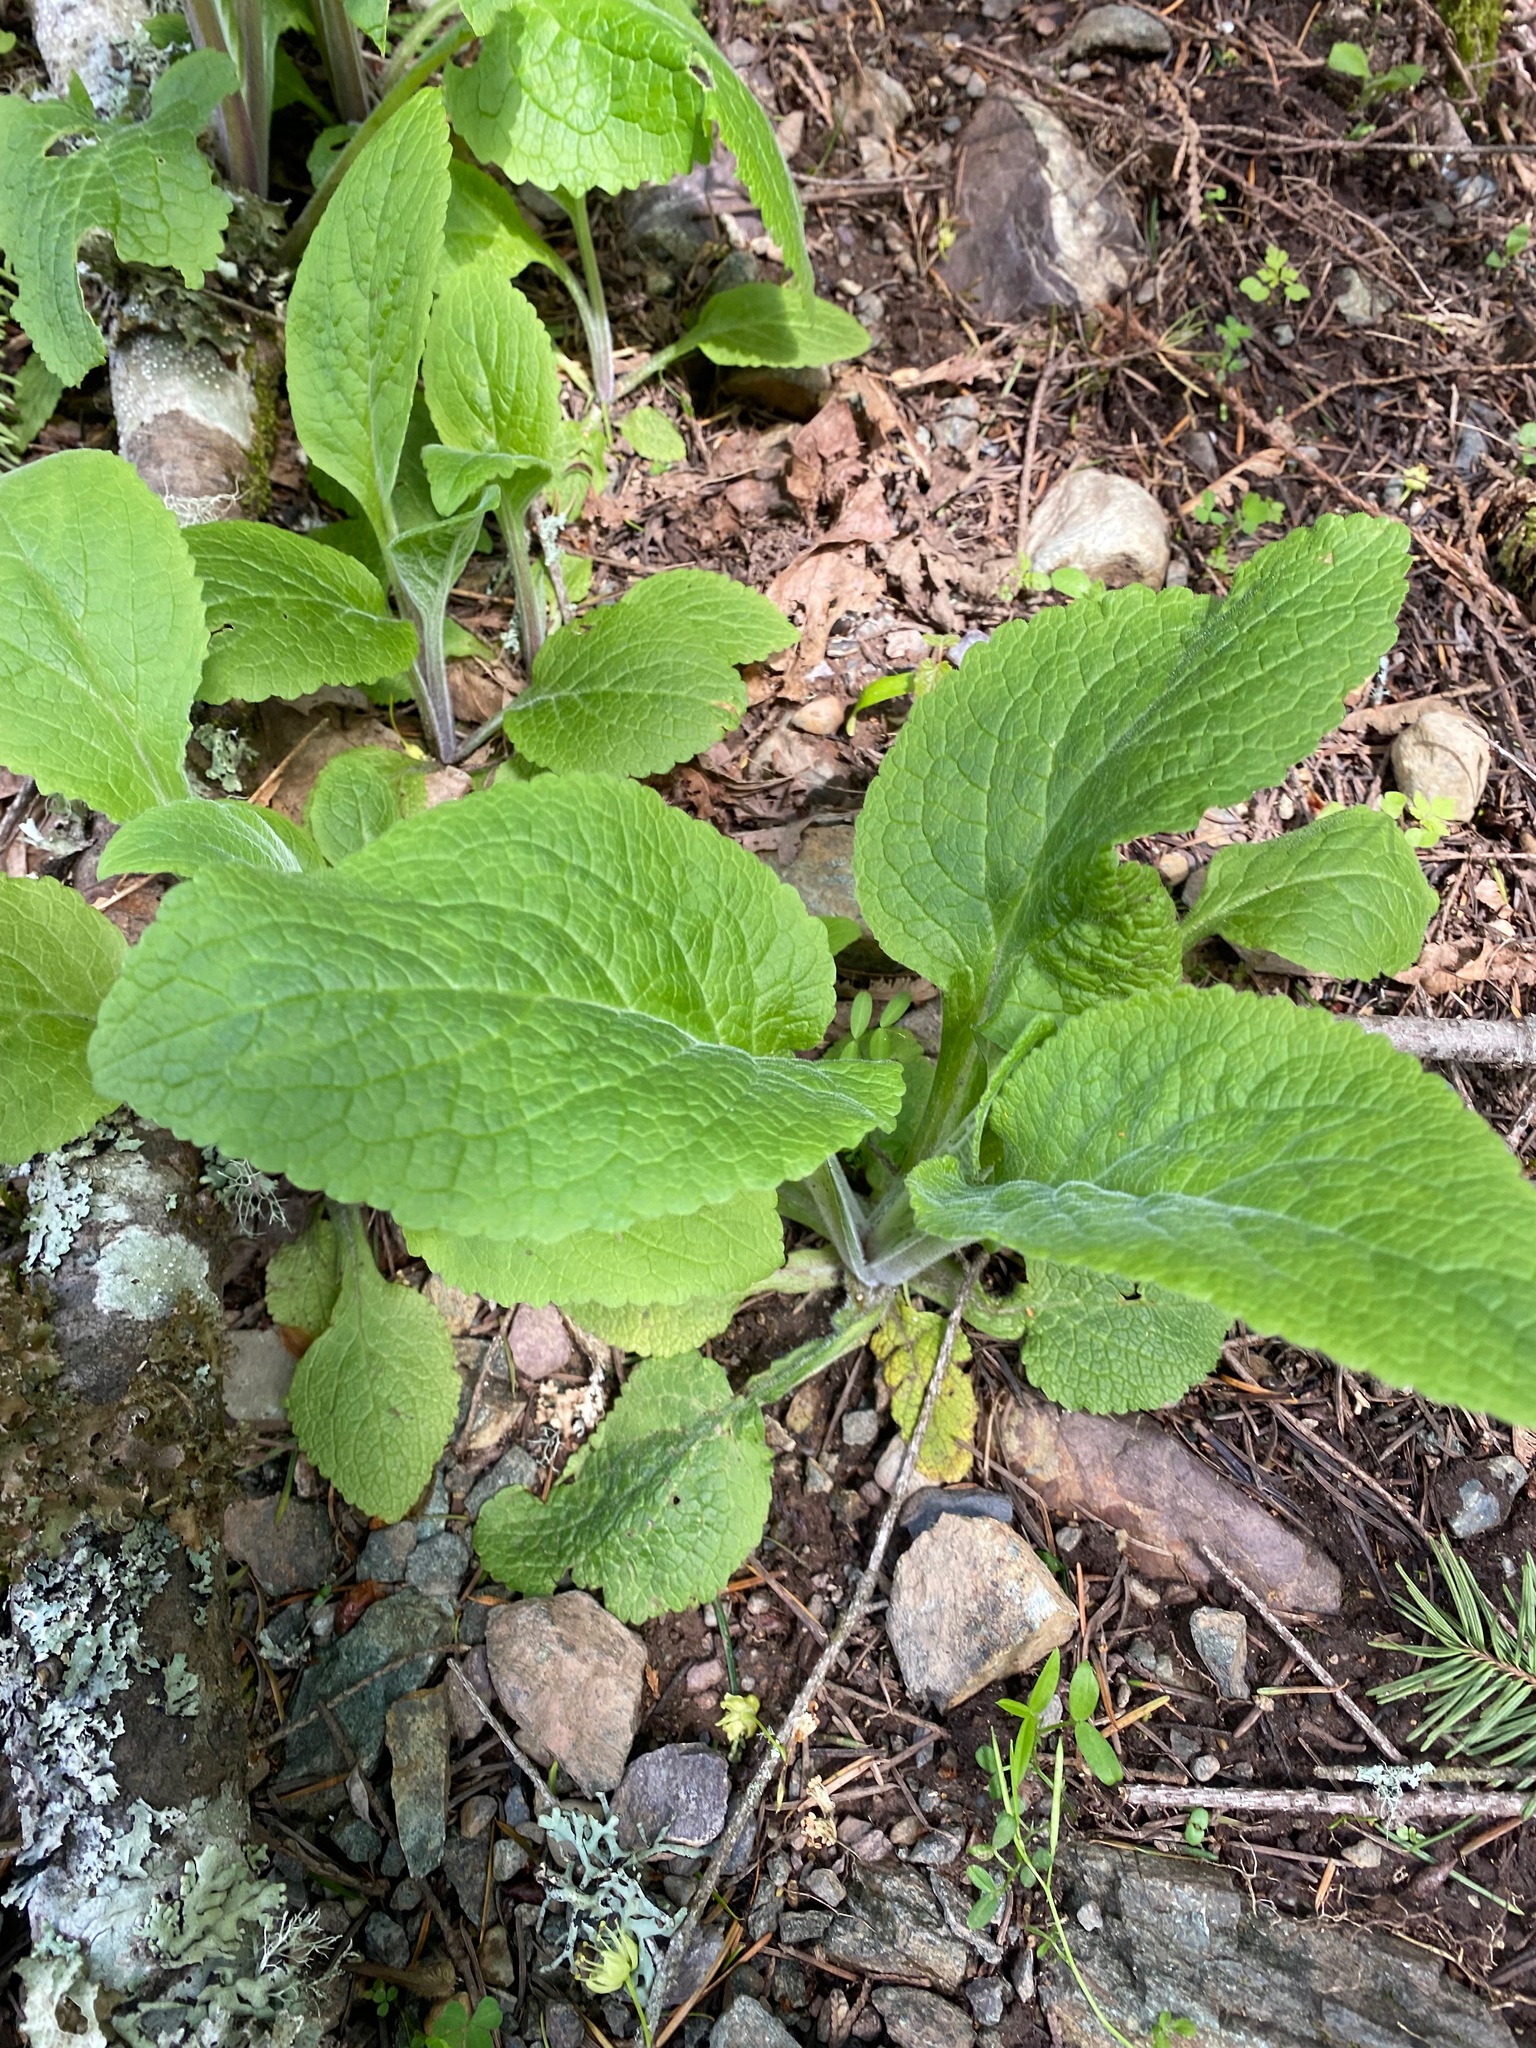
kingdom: Plantae
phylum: Tracheophyta
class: Magnoliopsida
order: Lamiales
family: Plantaginaceae
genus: Digitalis
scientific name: Digitalis purpurea
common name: Foxglove
